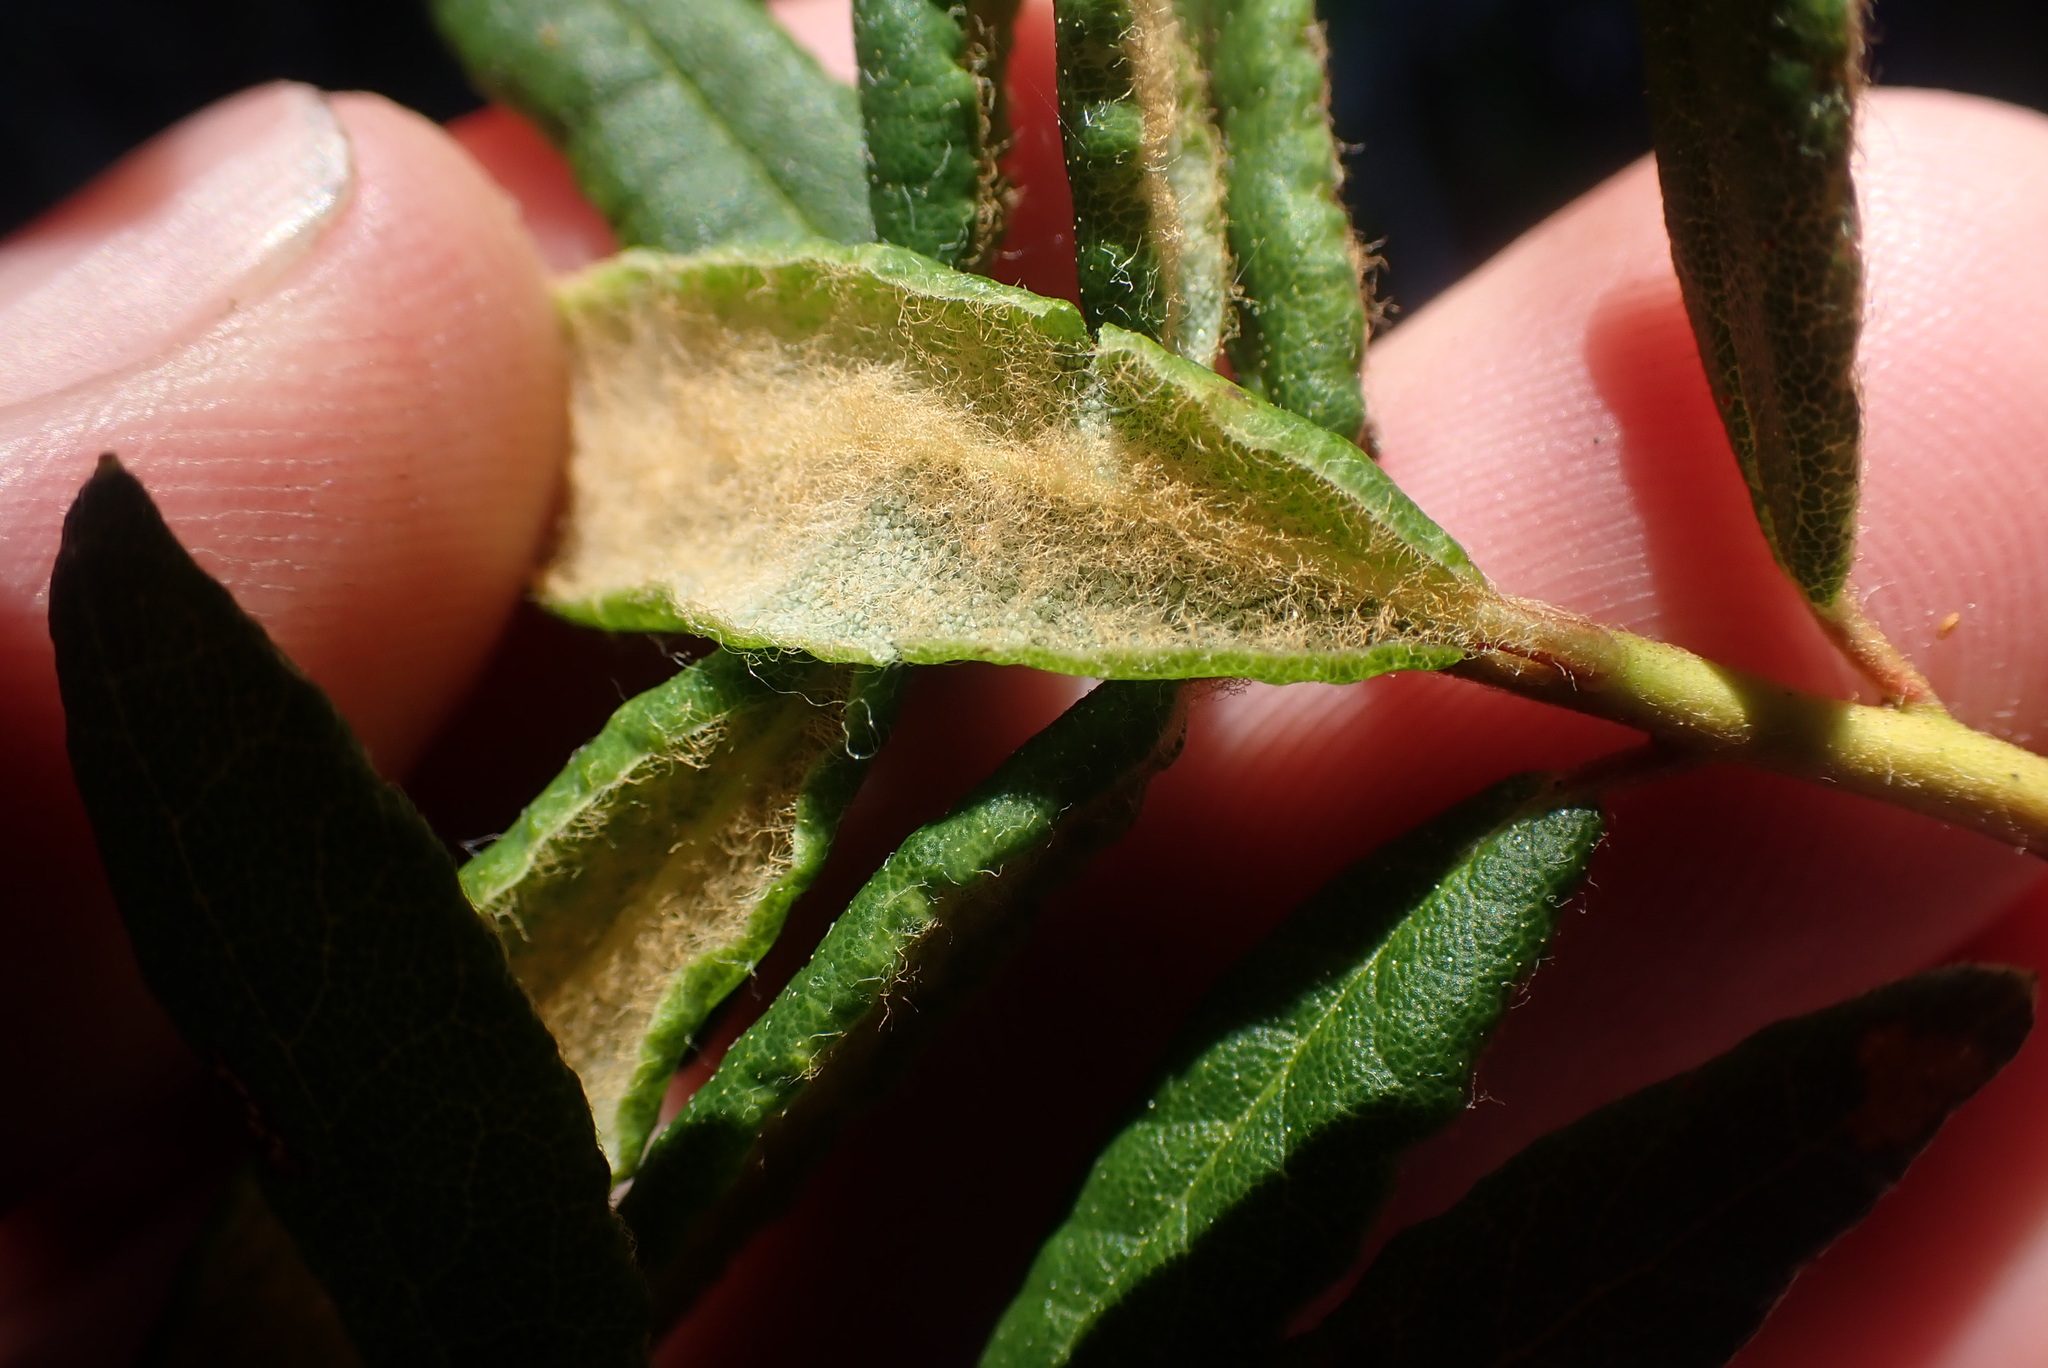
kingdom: Plantae
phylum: Tracheophyta
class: Magnoliopsida
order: Ericales
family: Ericaceae
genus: Rhododendron
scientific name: Rhododendron groenlandicum
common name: Bog labrador tea
